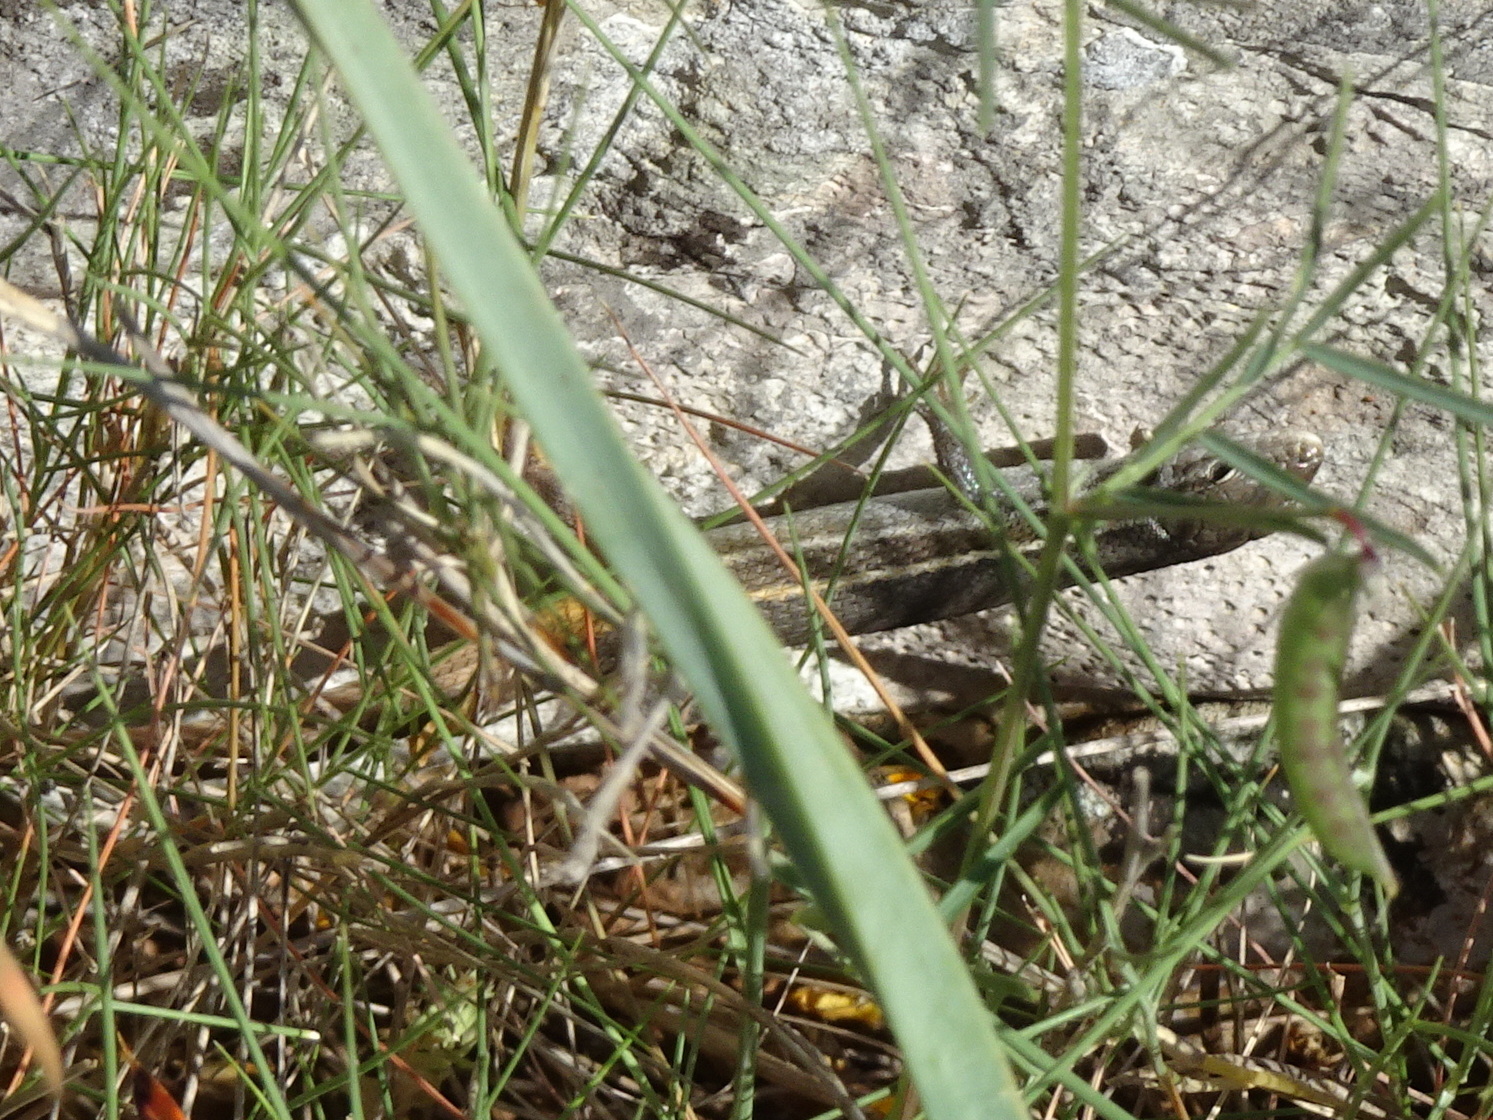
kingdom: Animalia
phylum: Chordata
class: Squamata
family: Lacertidae
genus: Psammodromus
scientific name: Psammodromus algirus
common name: Algerian psammodromus
